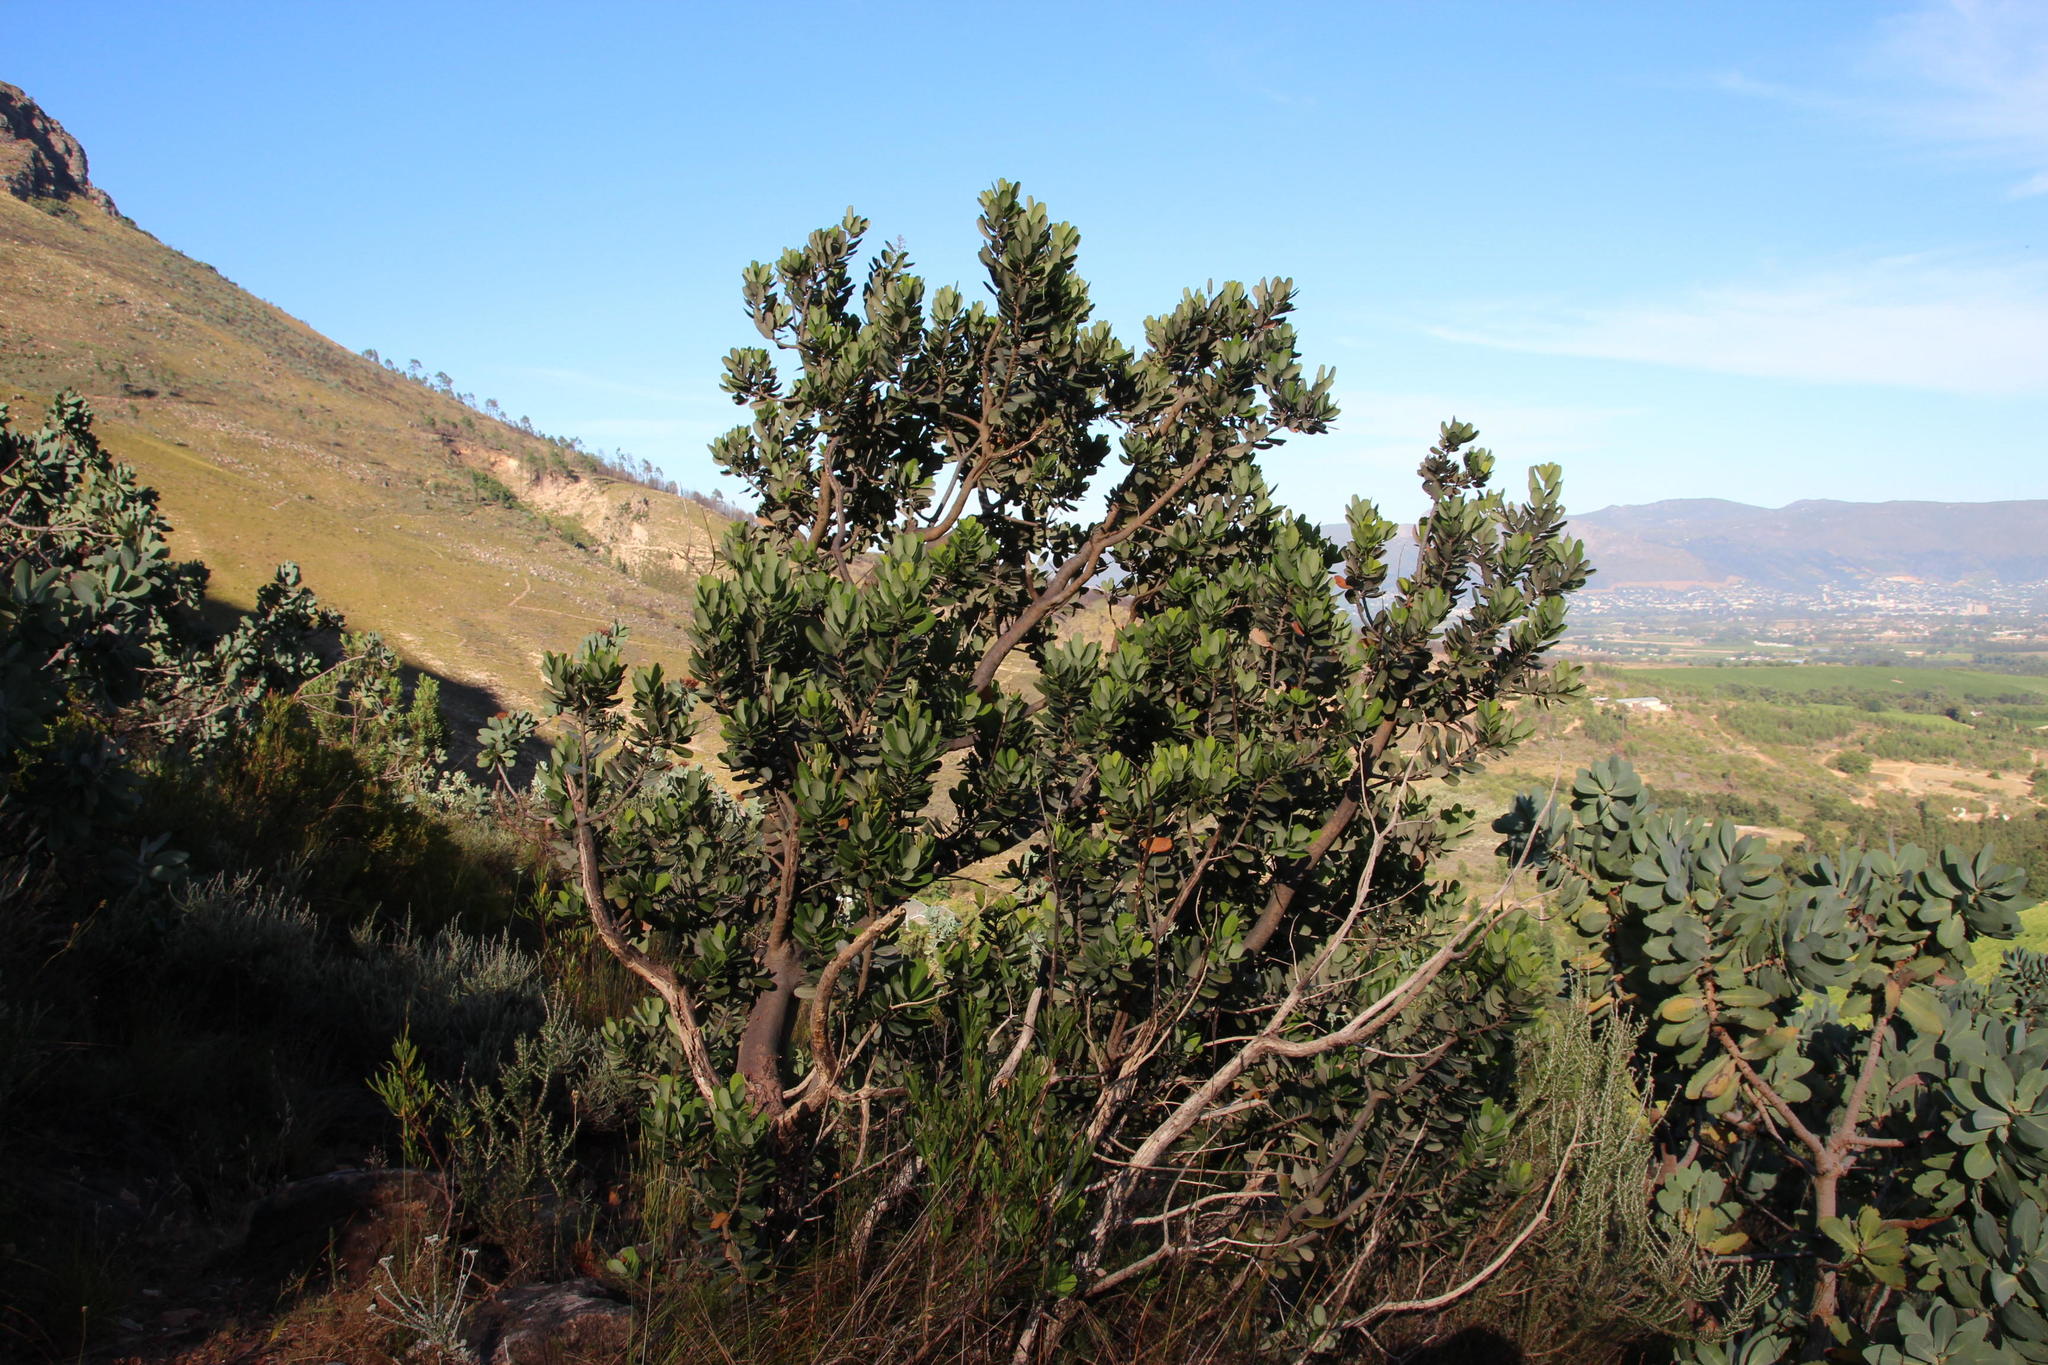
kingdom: Plantae
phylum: Tracheophyta
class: Magnoliopsida
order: Sapindales
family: Anacardiaceae
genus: Heeria
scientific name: Heeria argentea
